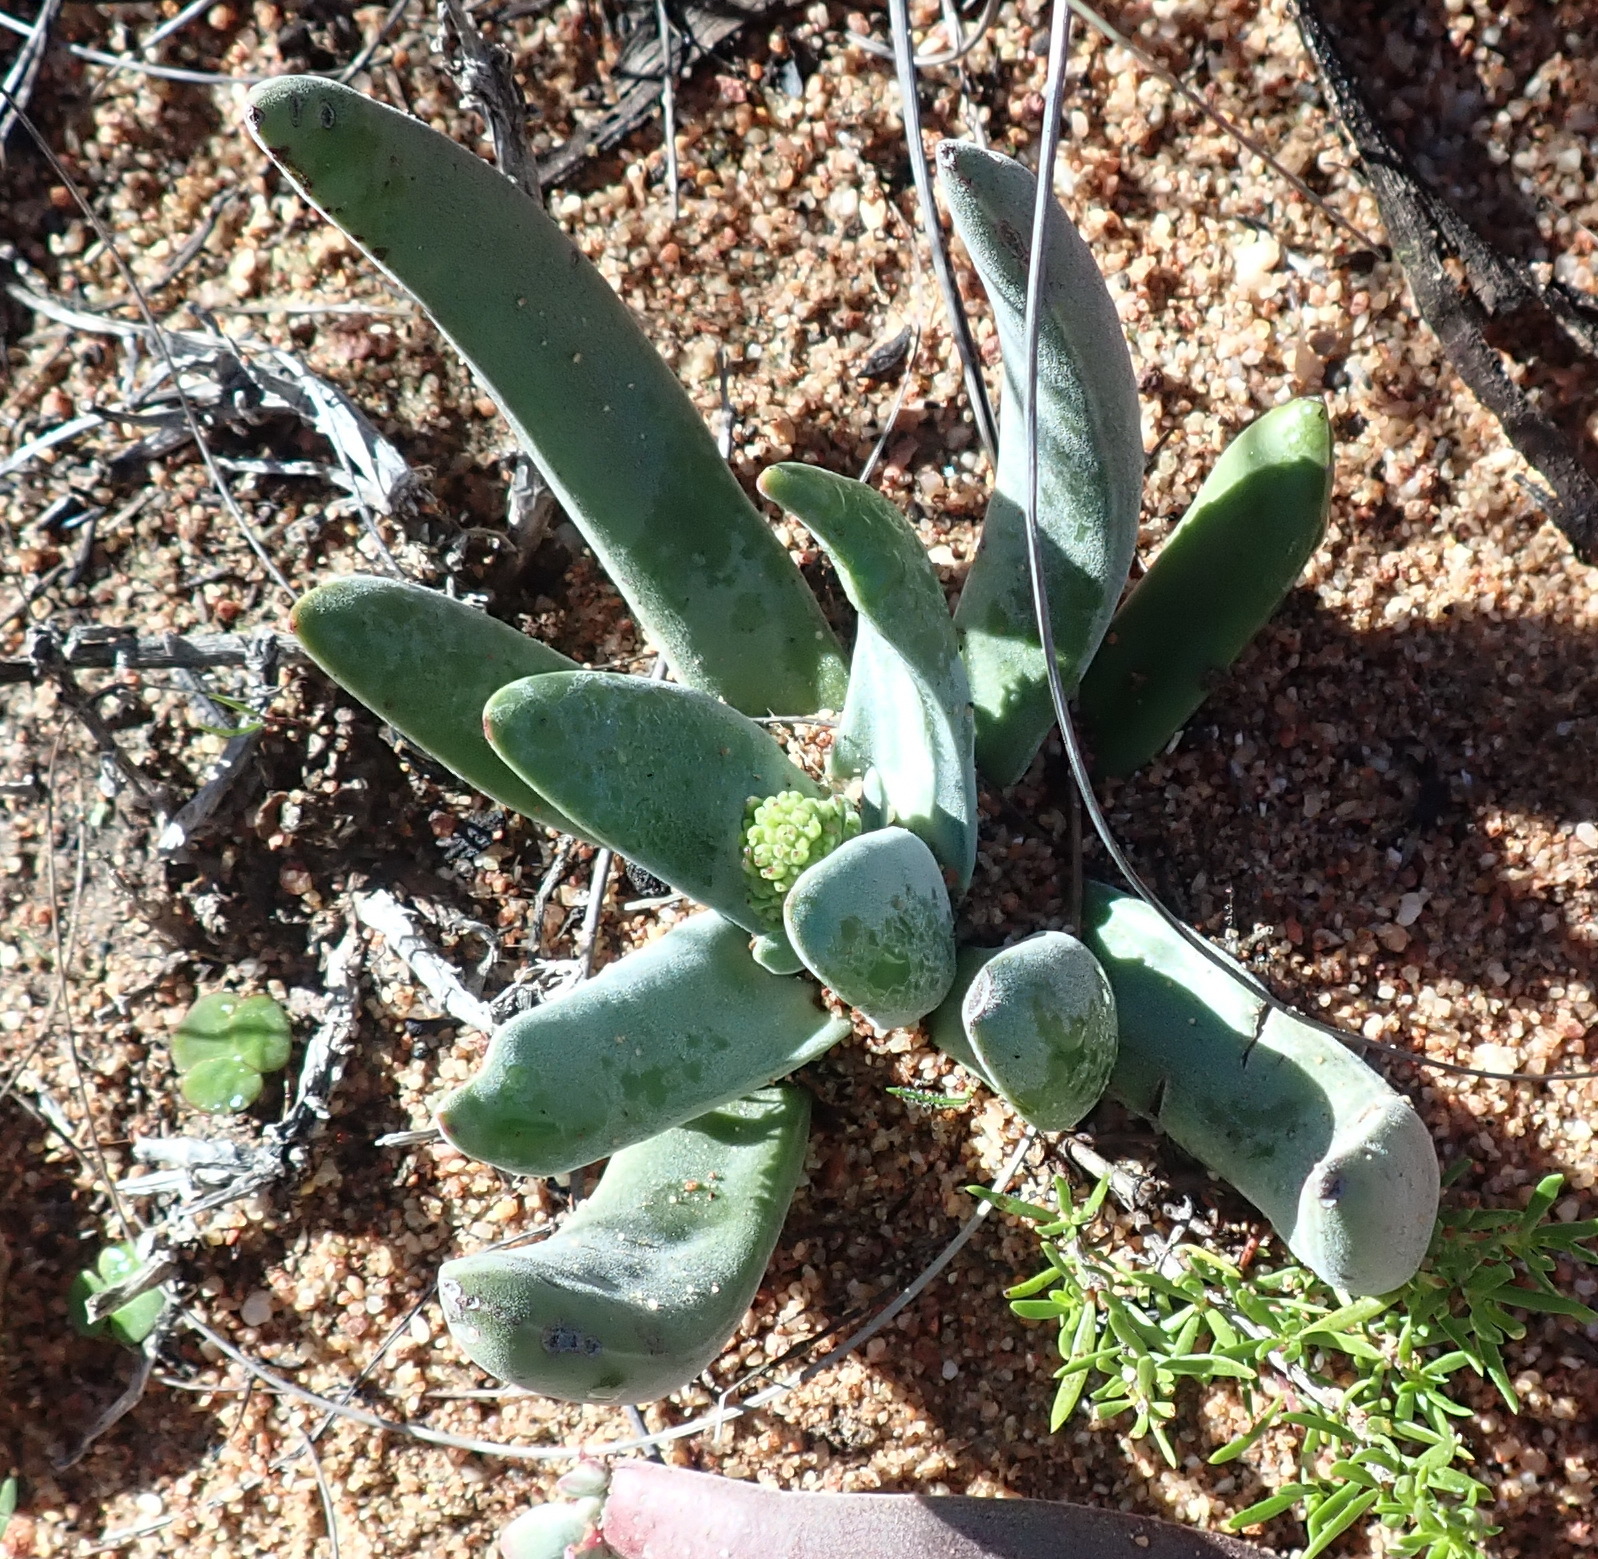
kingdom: Plantae
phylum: Tracheophyta
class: Magnoliopsida
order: Saxifragales
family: Crassulaceae
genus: Crassula
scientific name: Crassula nudicaulis
